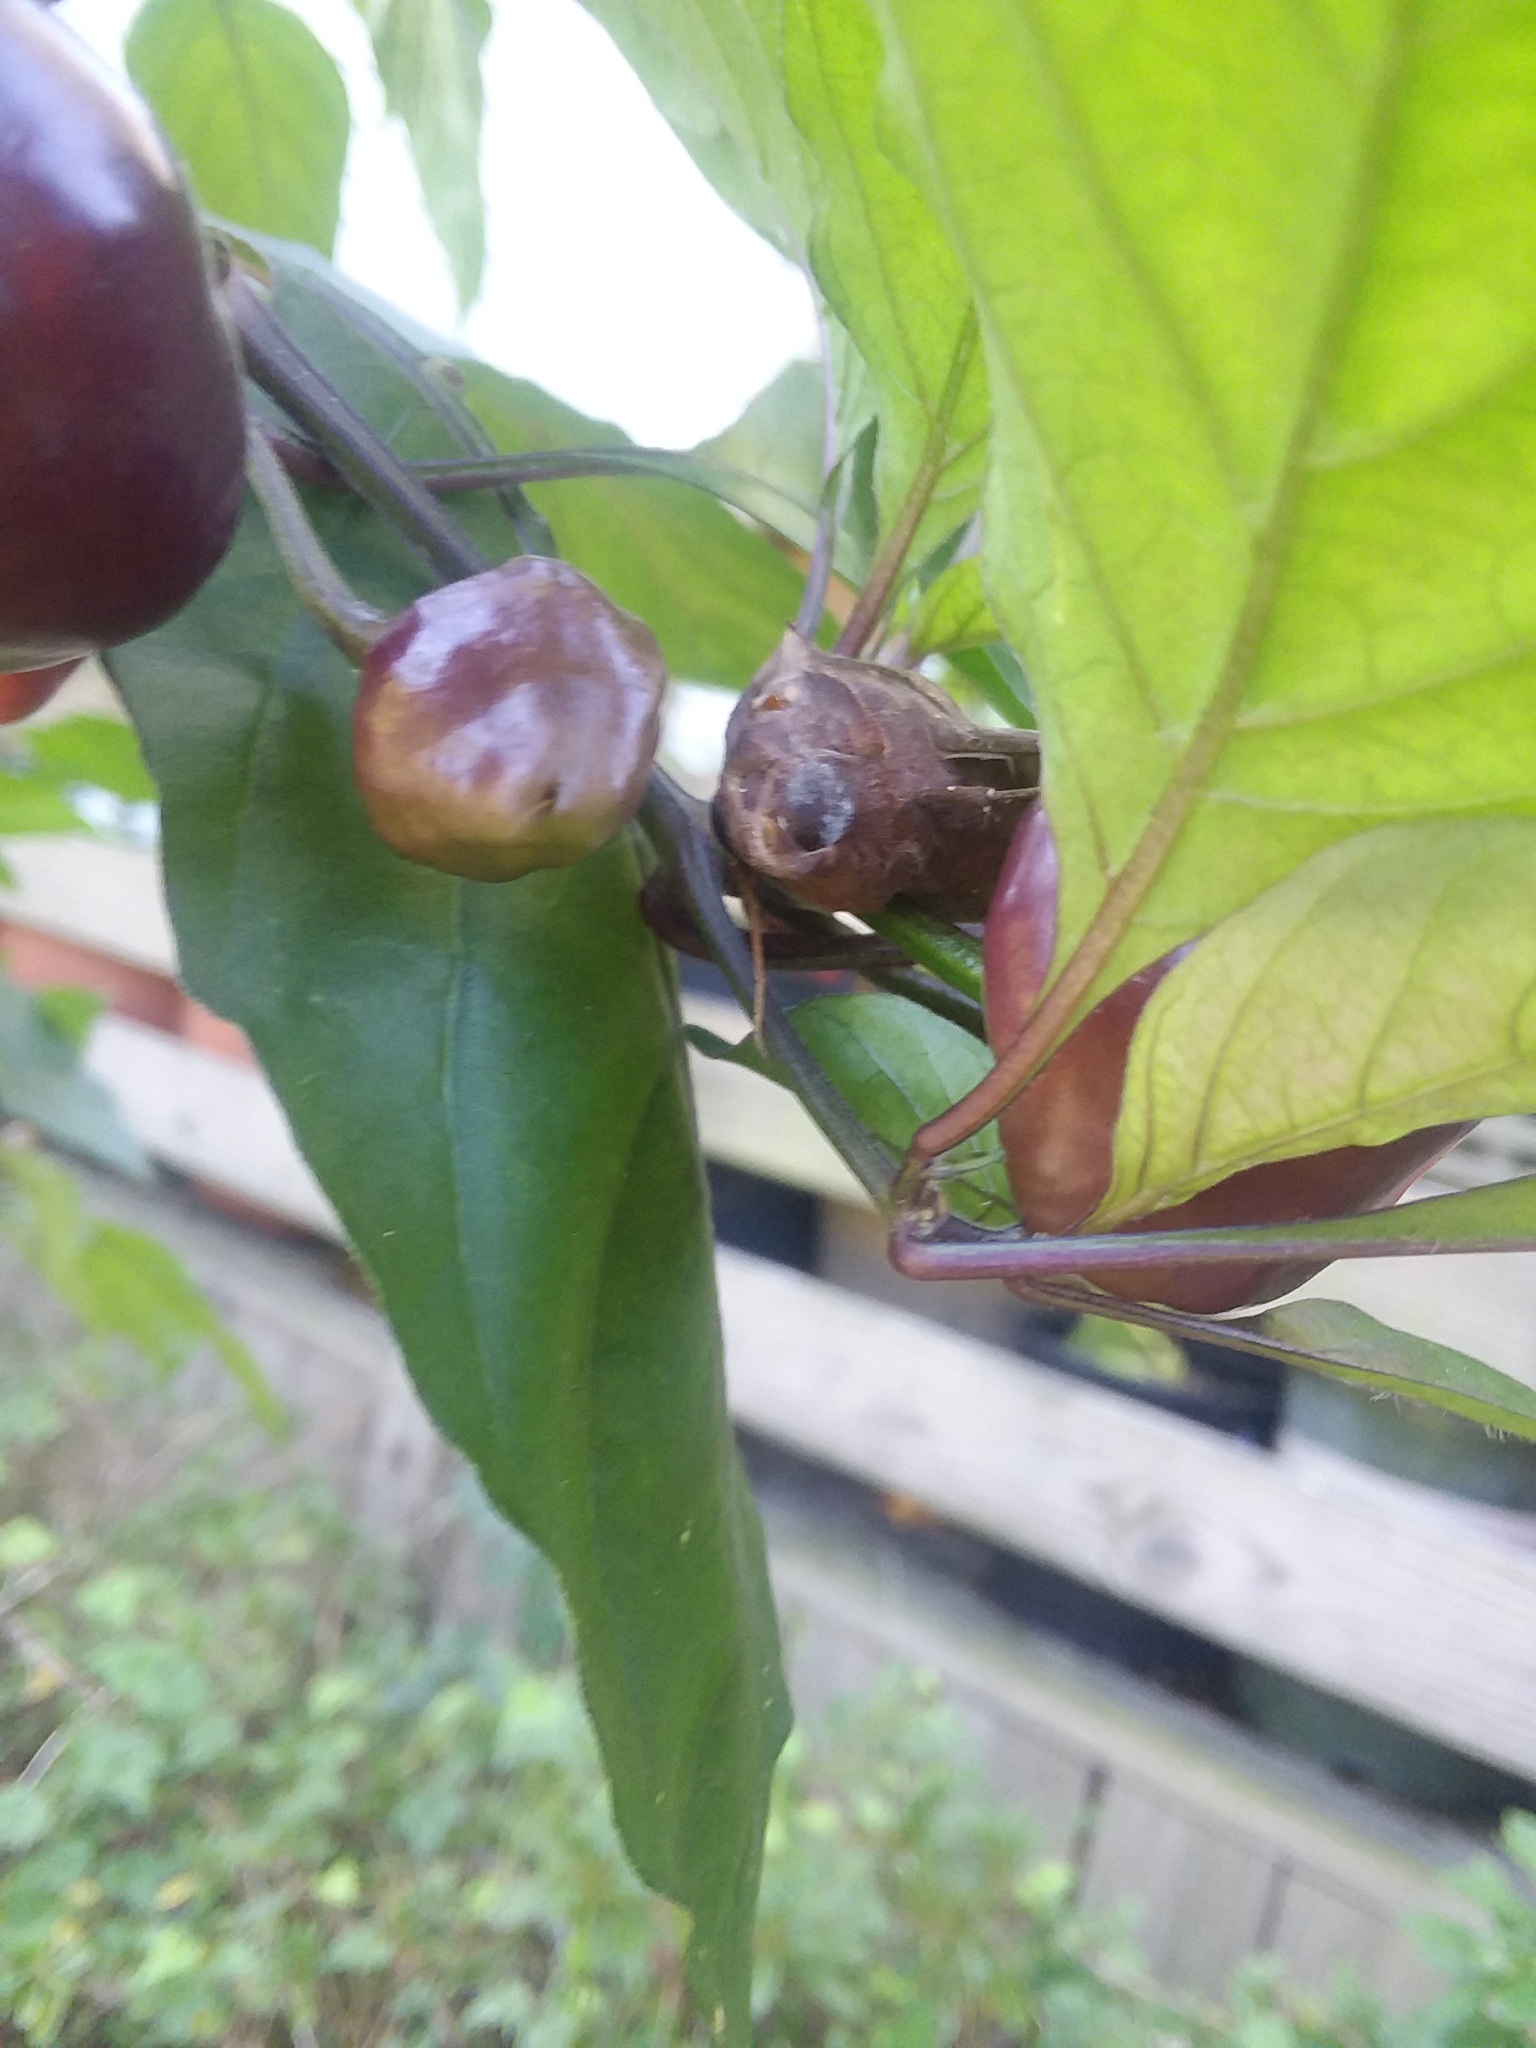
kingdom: Animalia
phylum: Arthropoda
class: Insecta
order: Lepidoptera
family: Sphingidae
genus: Enyo
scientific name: Enyo lugubris
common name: Mournful sphinx
